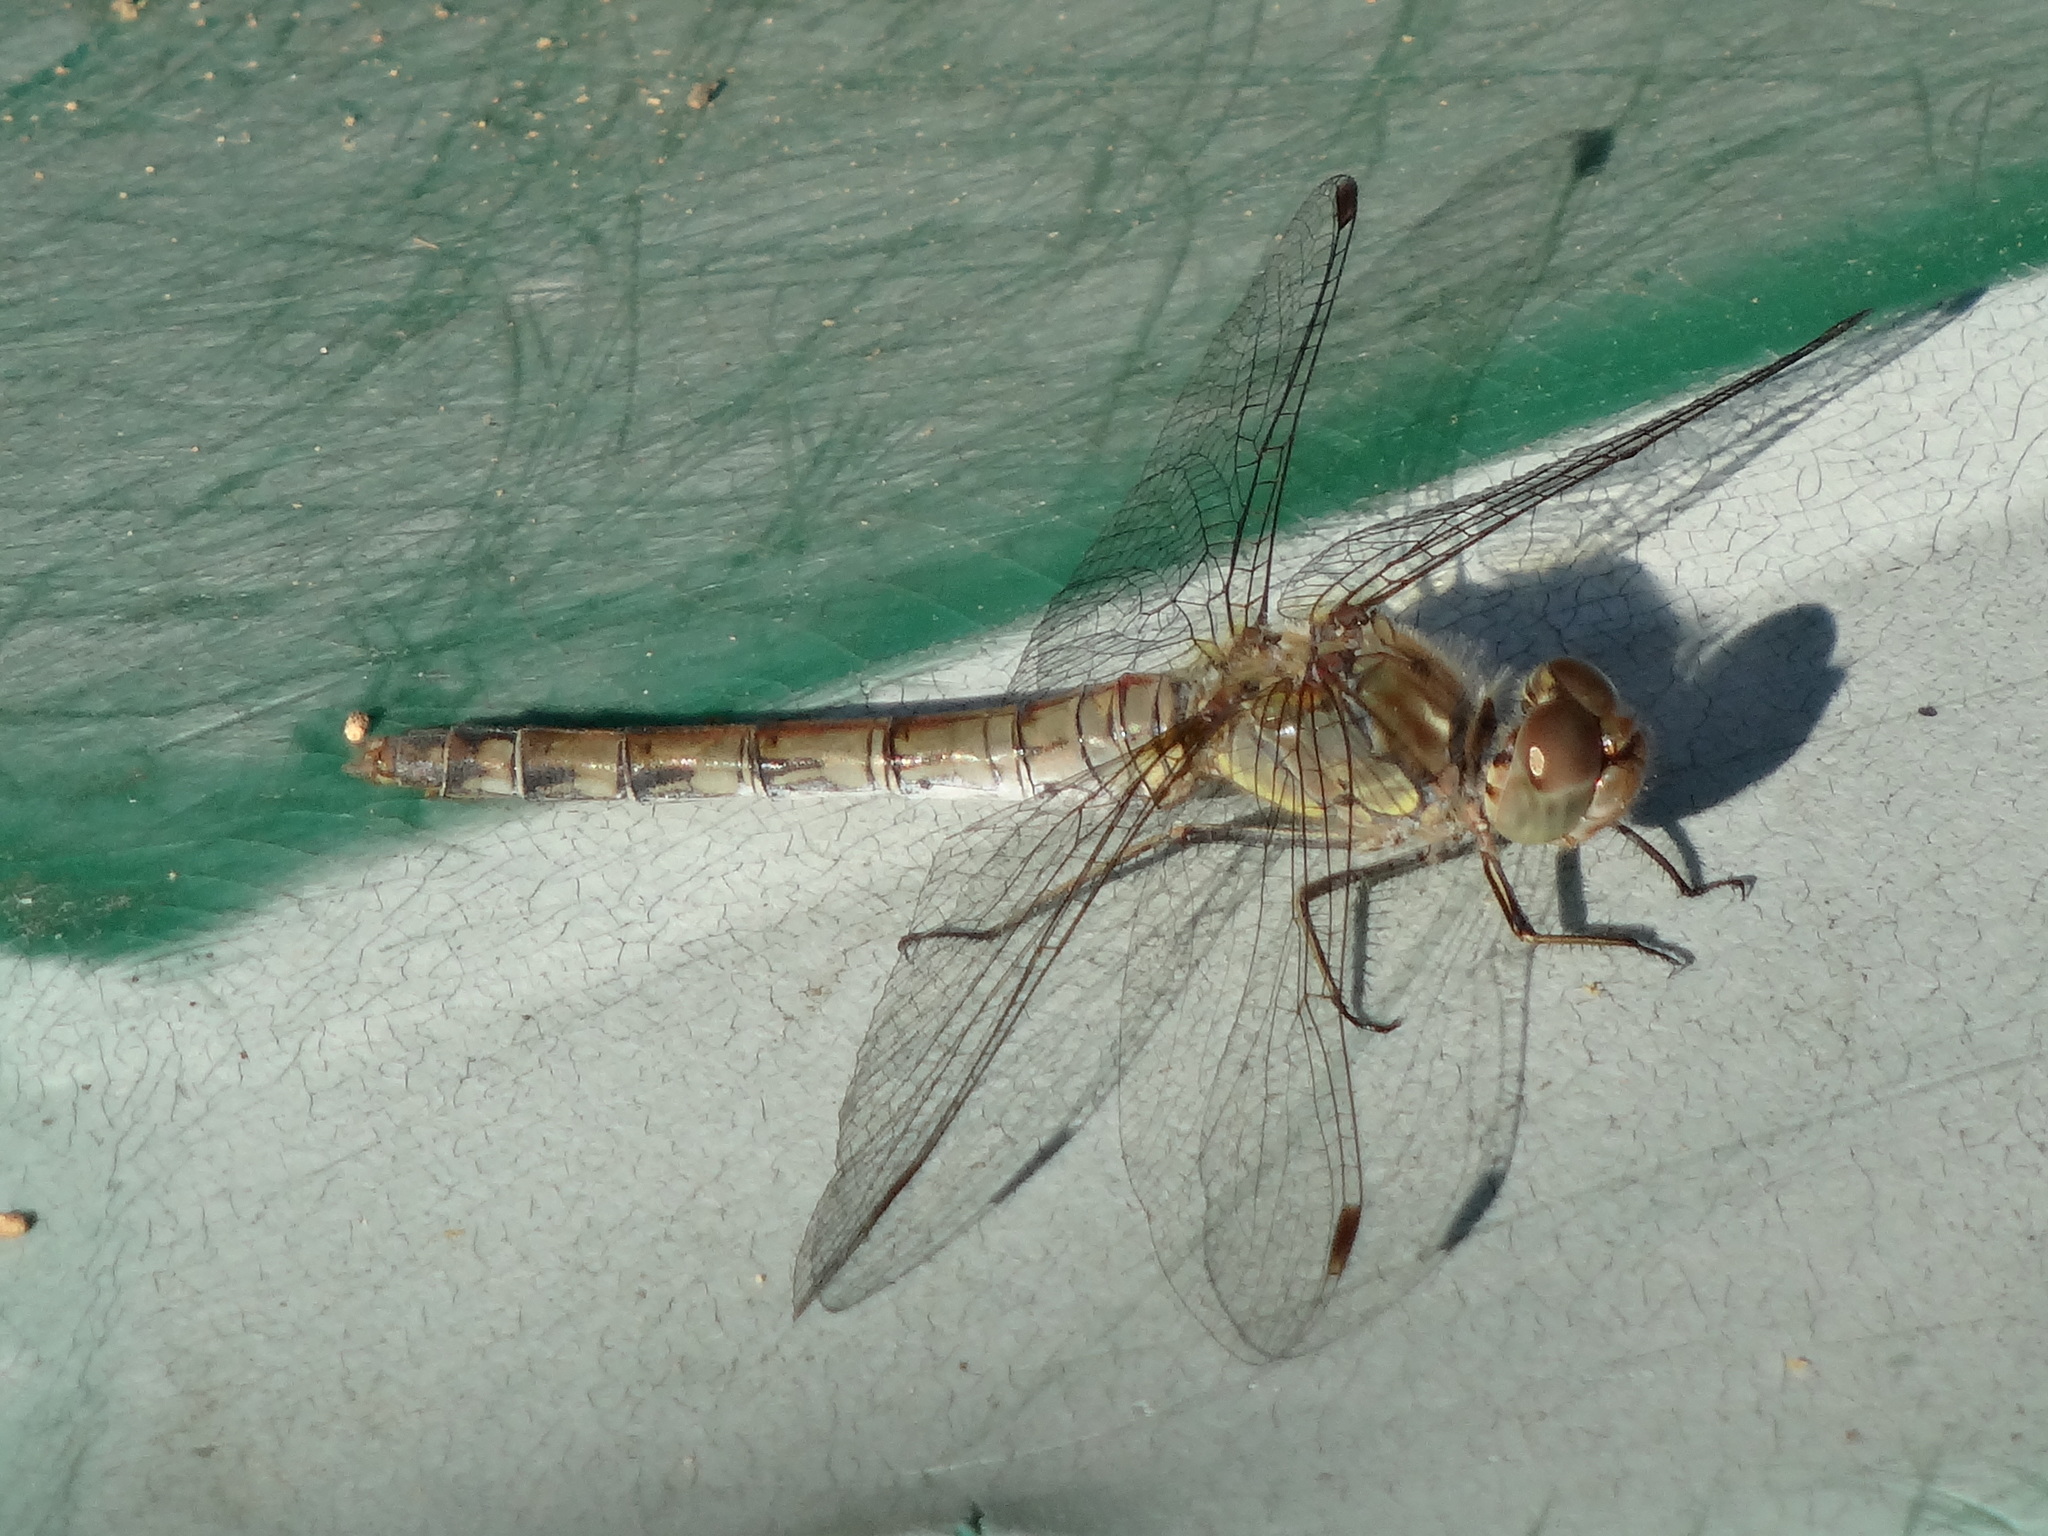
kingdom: Animalia
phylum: Arthropoda
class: Insecta
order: Odonata
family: Libellulidae
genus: Sympetrum
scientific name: Sympetrum striolatum
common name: Common darter
